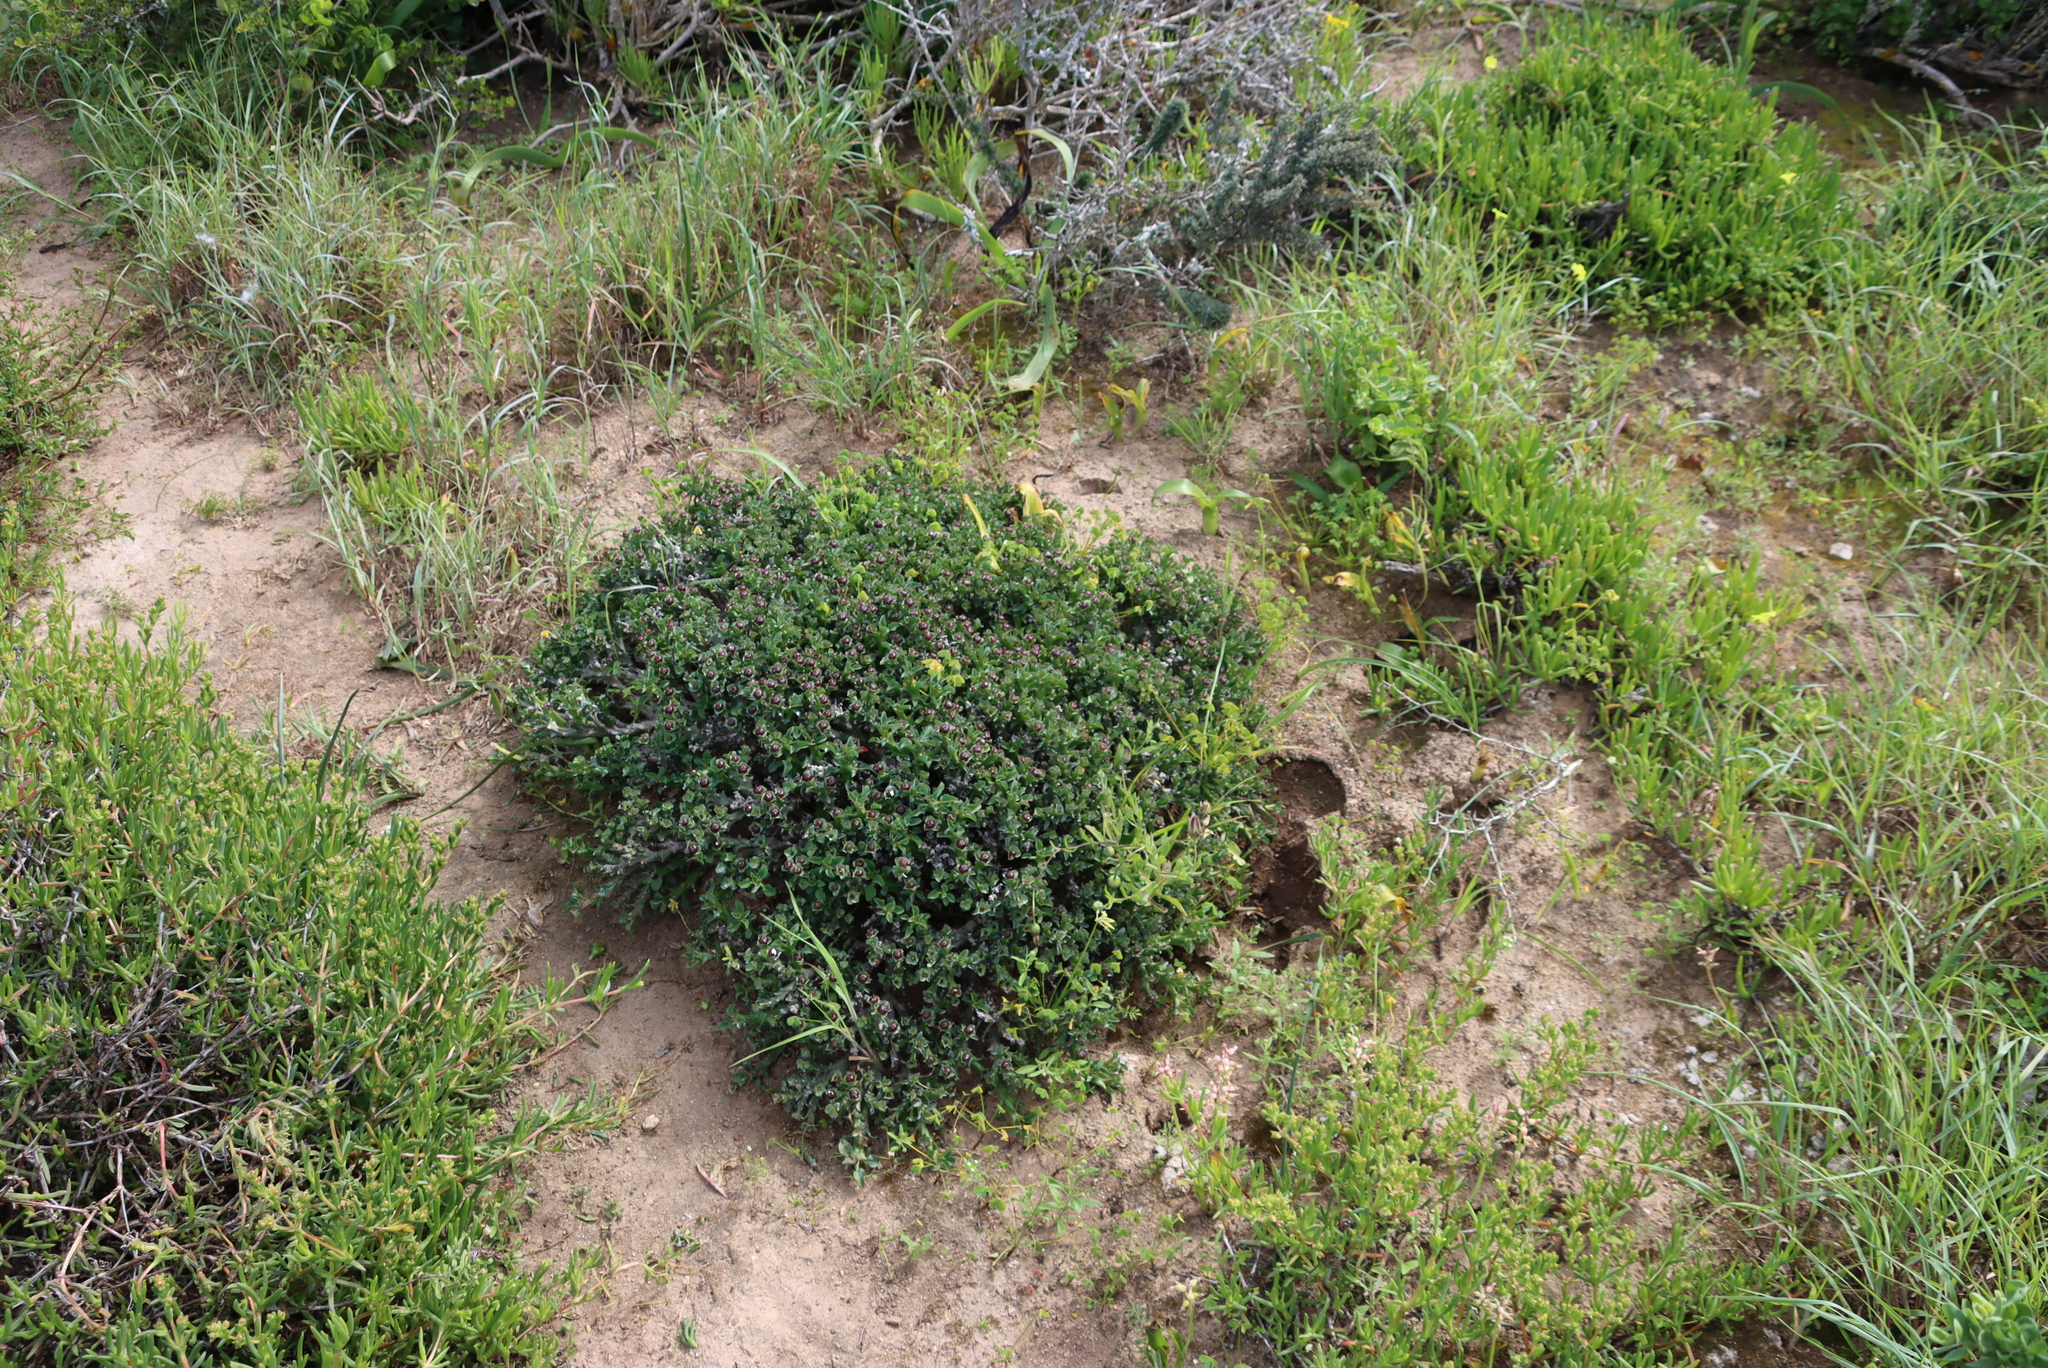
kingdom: Plantae
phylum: Tracheophyta
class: Magnoliopsida
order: Malpighiales
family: Euphorbiaceae
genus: Euphorbia
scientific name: Euphorbia hamata
